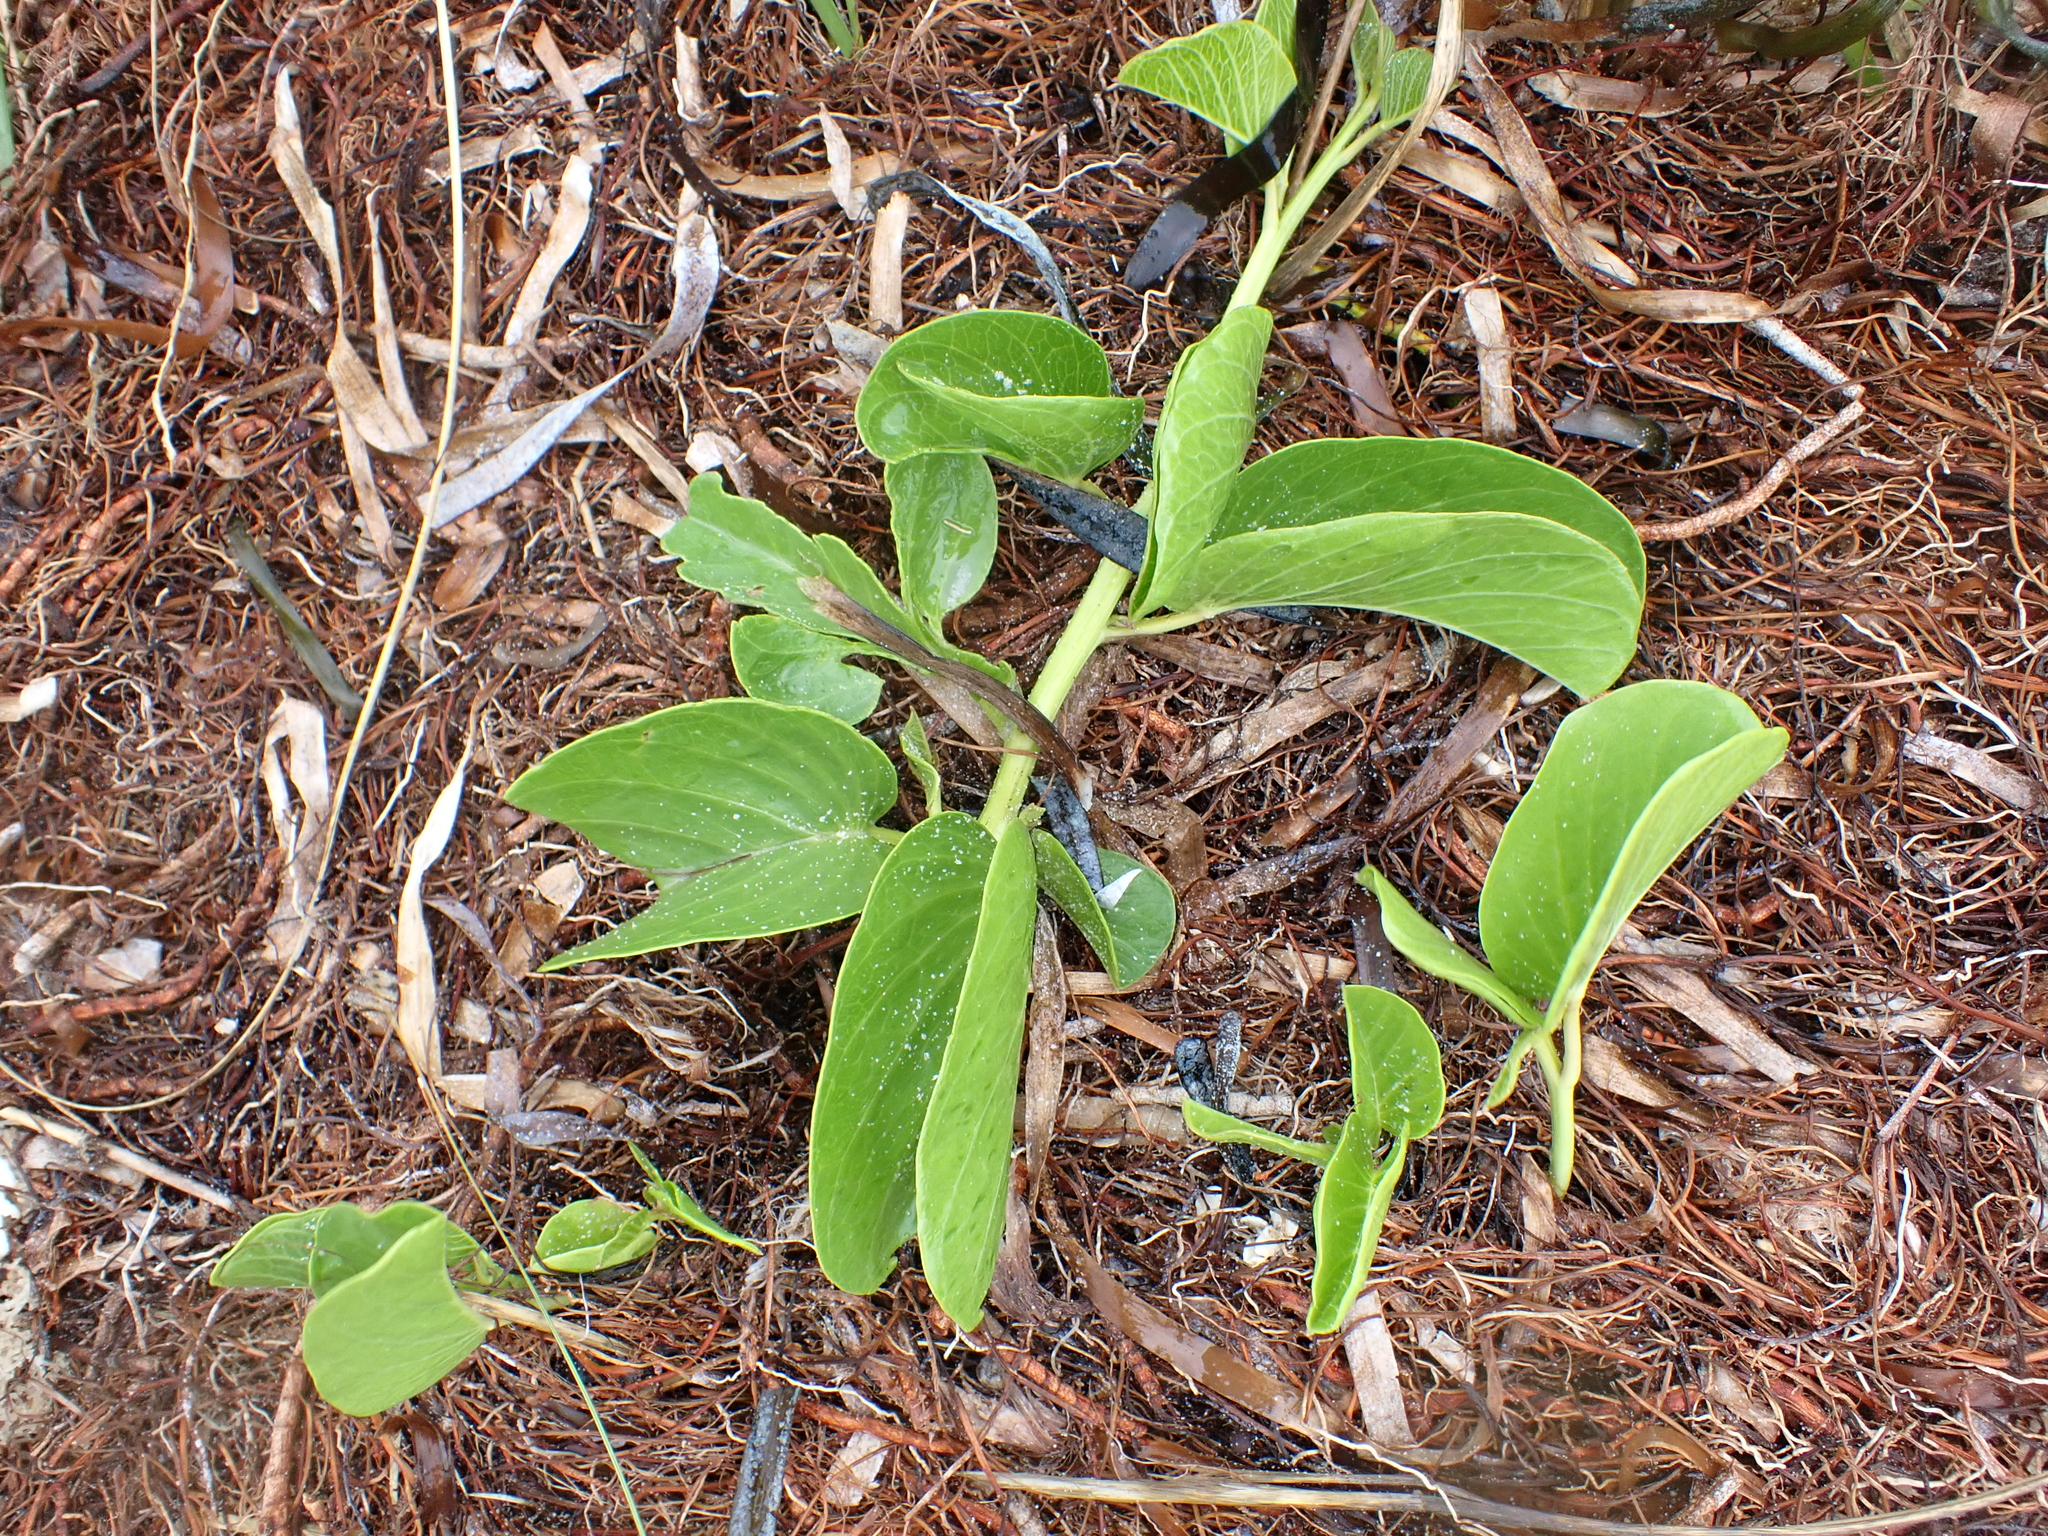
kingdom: Plantae
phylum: Tracheophyta
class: Magnoliopsida
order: Solanales
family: Convolvulaceae
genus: Ipomoea
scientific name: Ipomoea pes-caprae
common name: Beach morning glory
